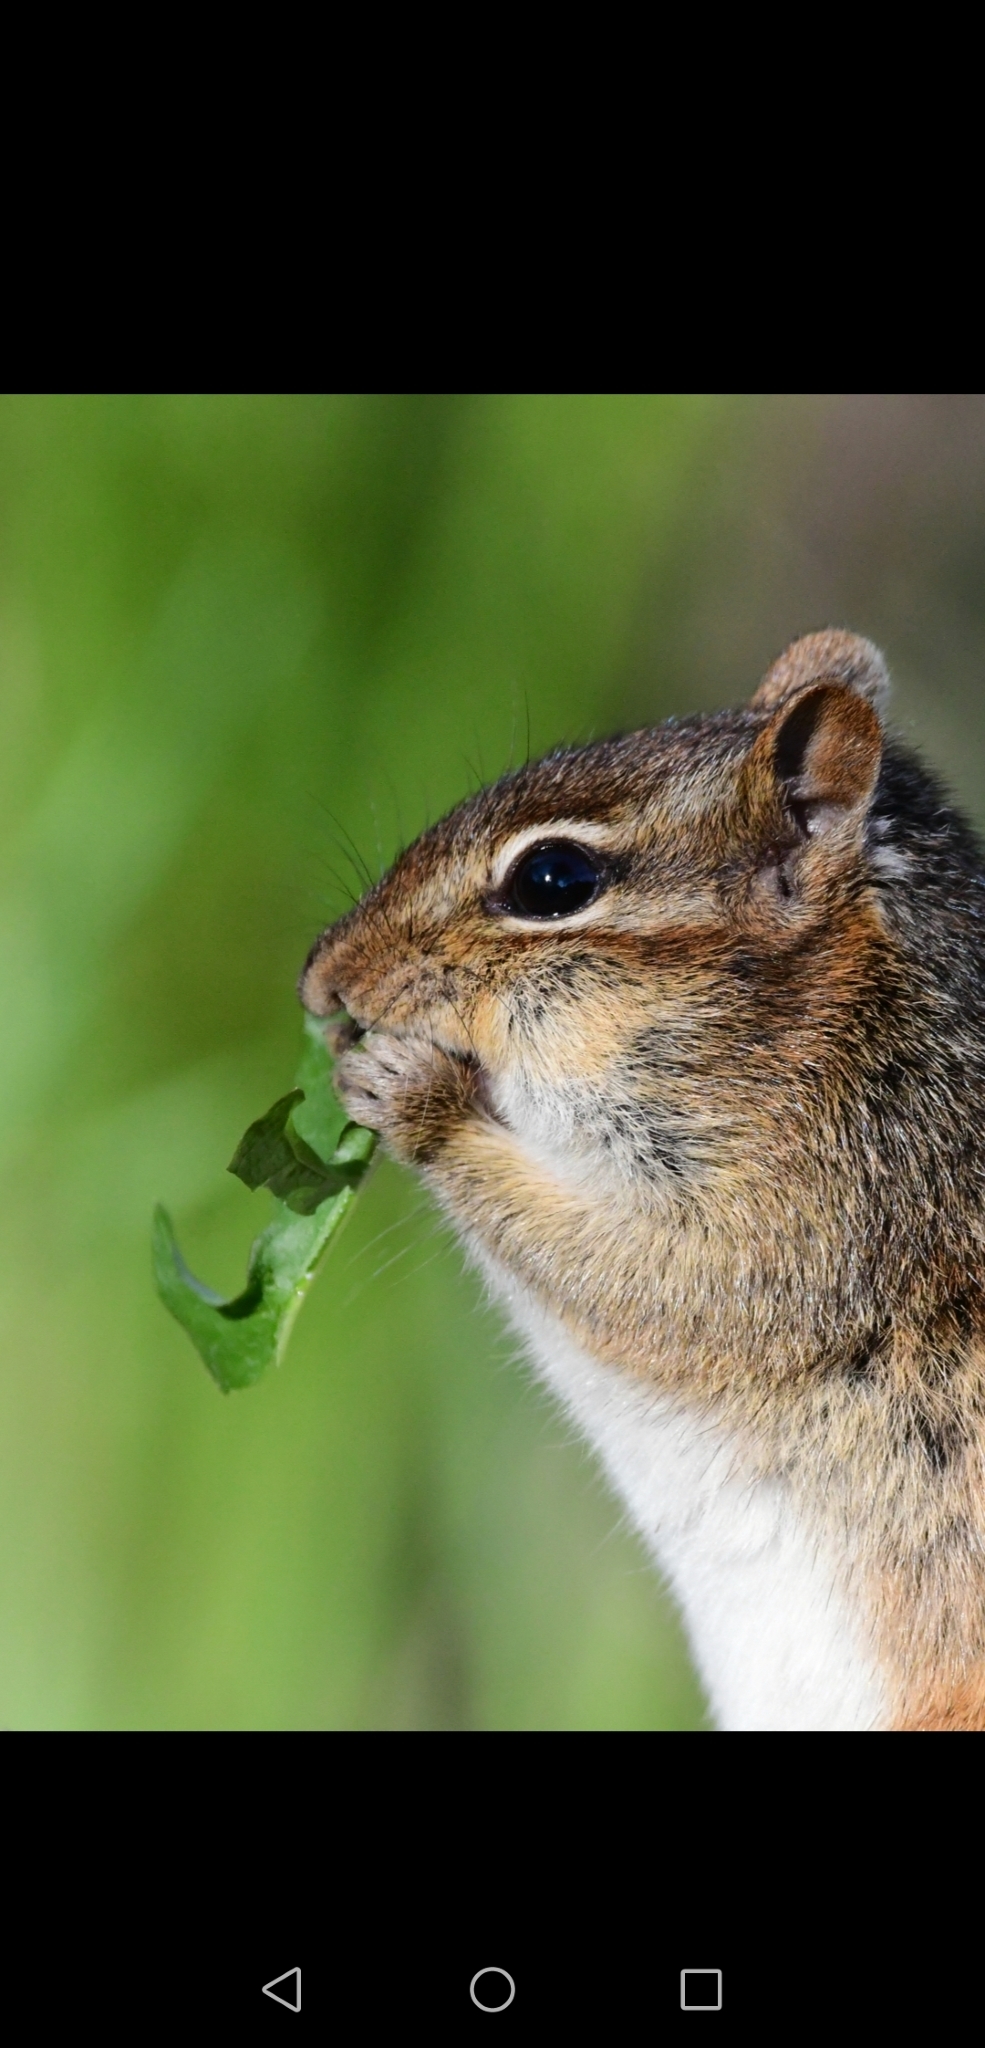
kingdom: Animalia
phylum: Chordata
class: Mammalia
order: Rodentia
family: Sciuridae
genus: Tamias
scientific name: Tamias striatus
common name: Eastern chipmunk
